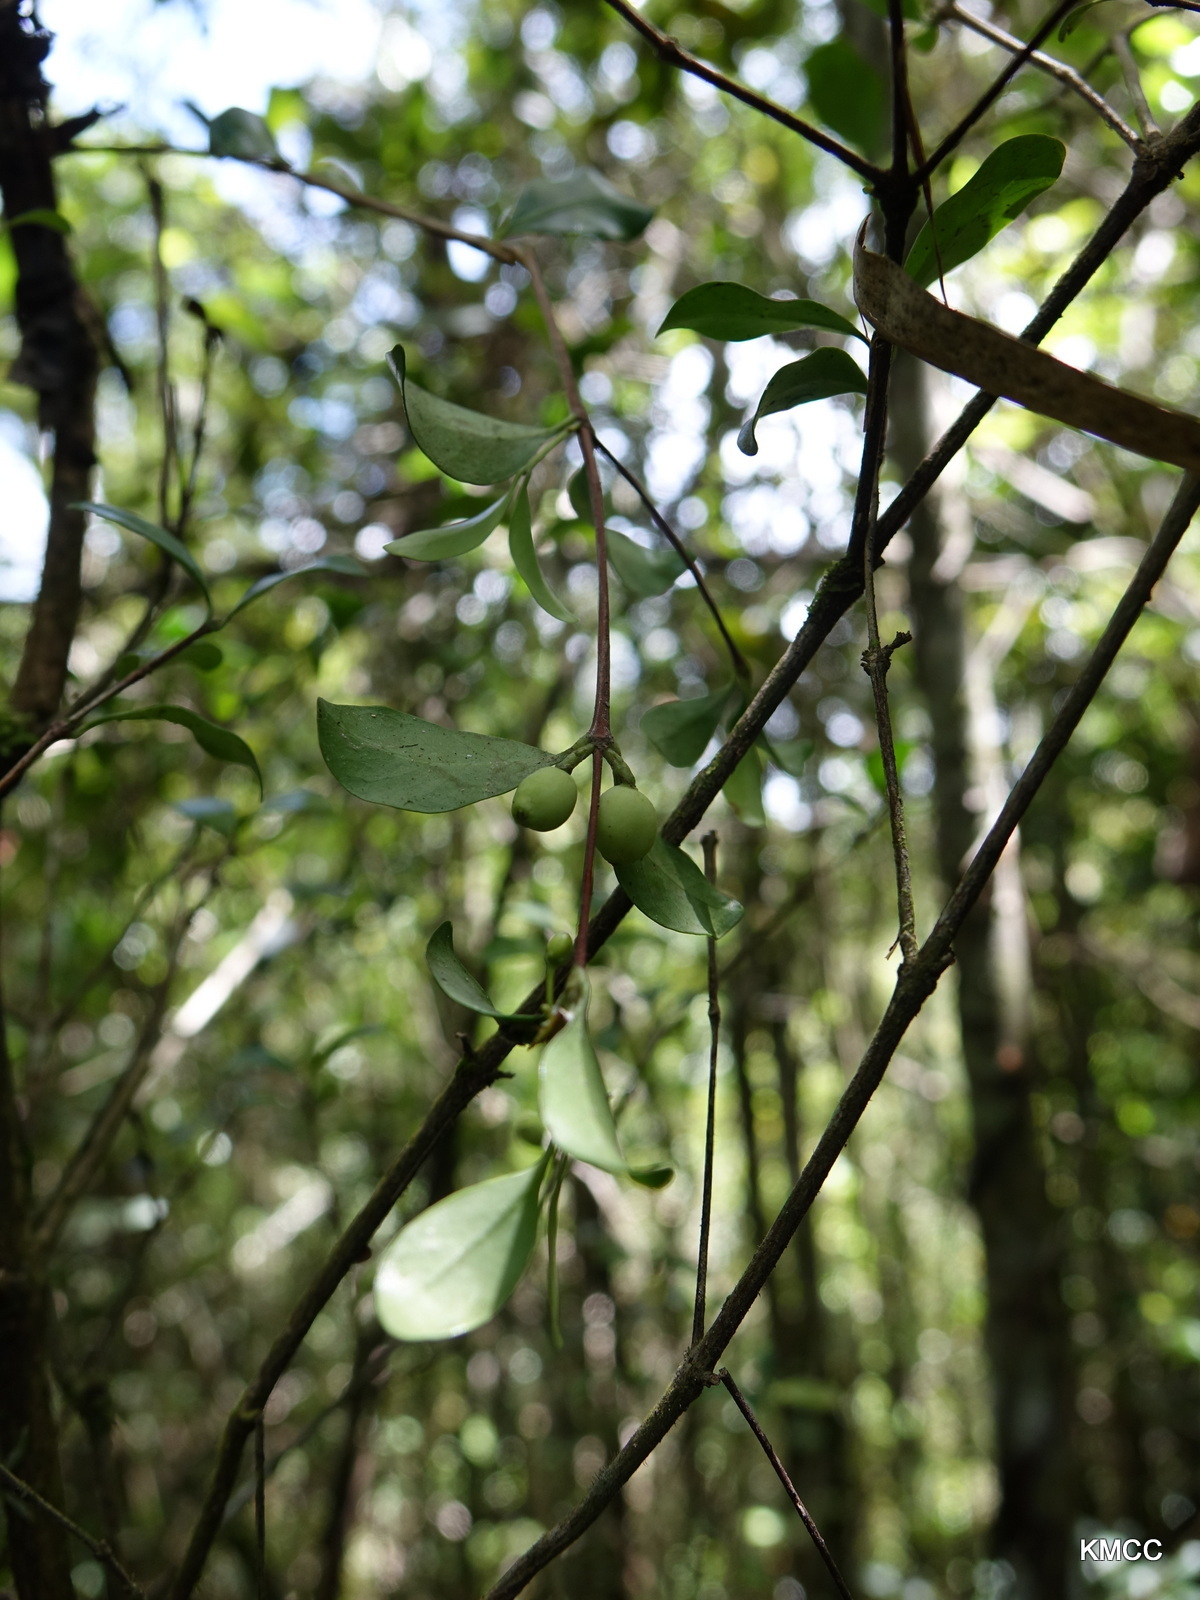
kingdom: Plantae
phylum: Tracheophyta
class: Magnoliopsida
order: Gentianales
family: Rubiaceae
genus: Coffea
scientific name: Coffea buxifolia
